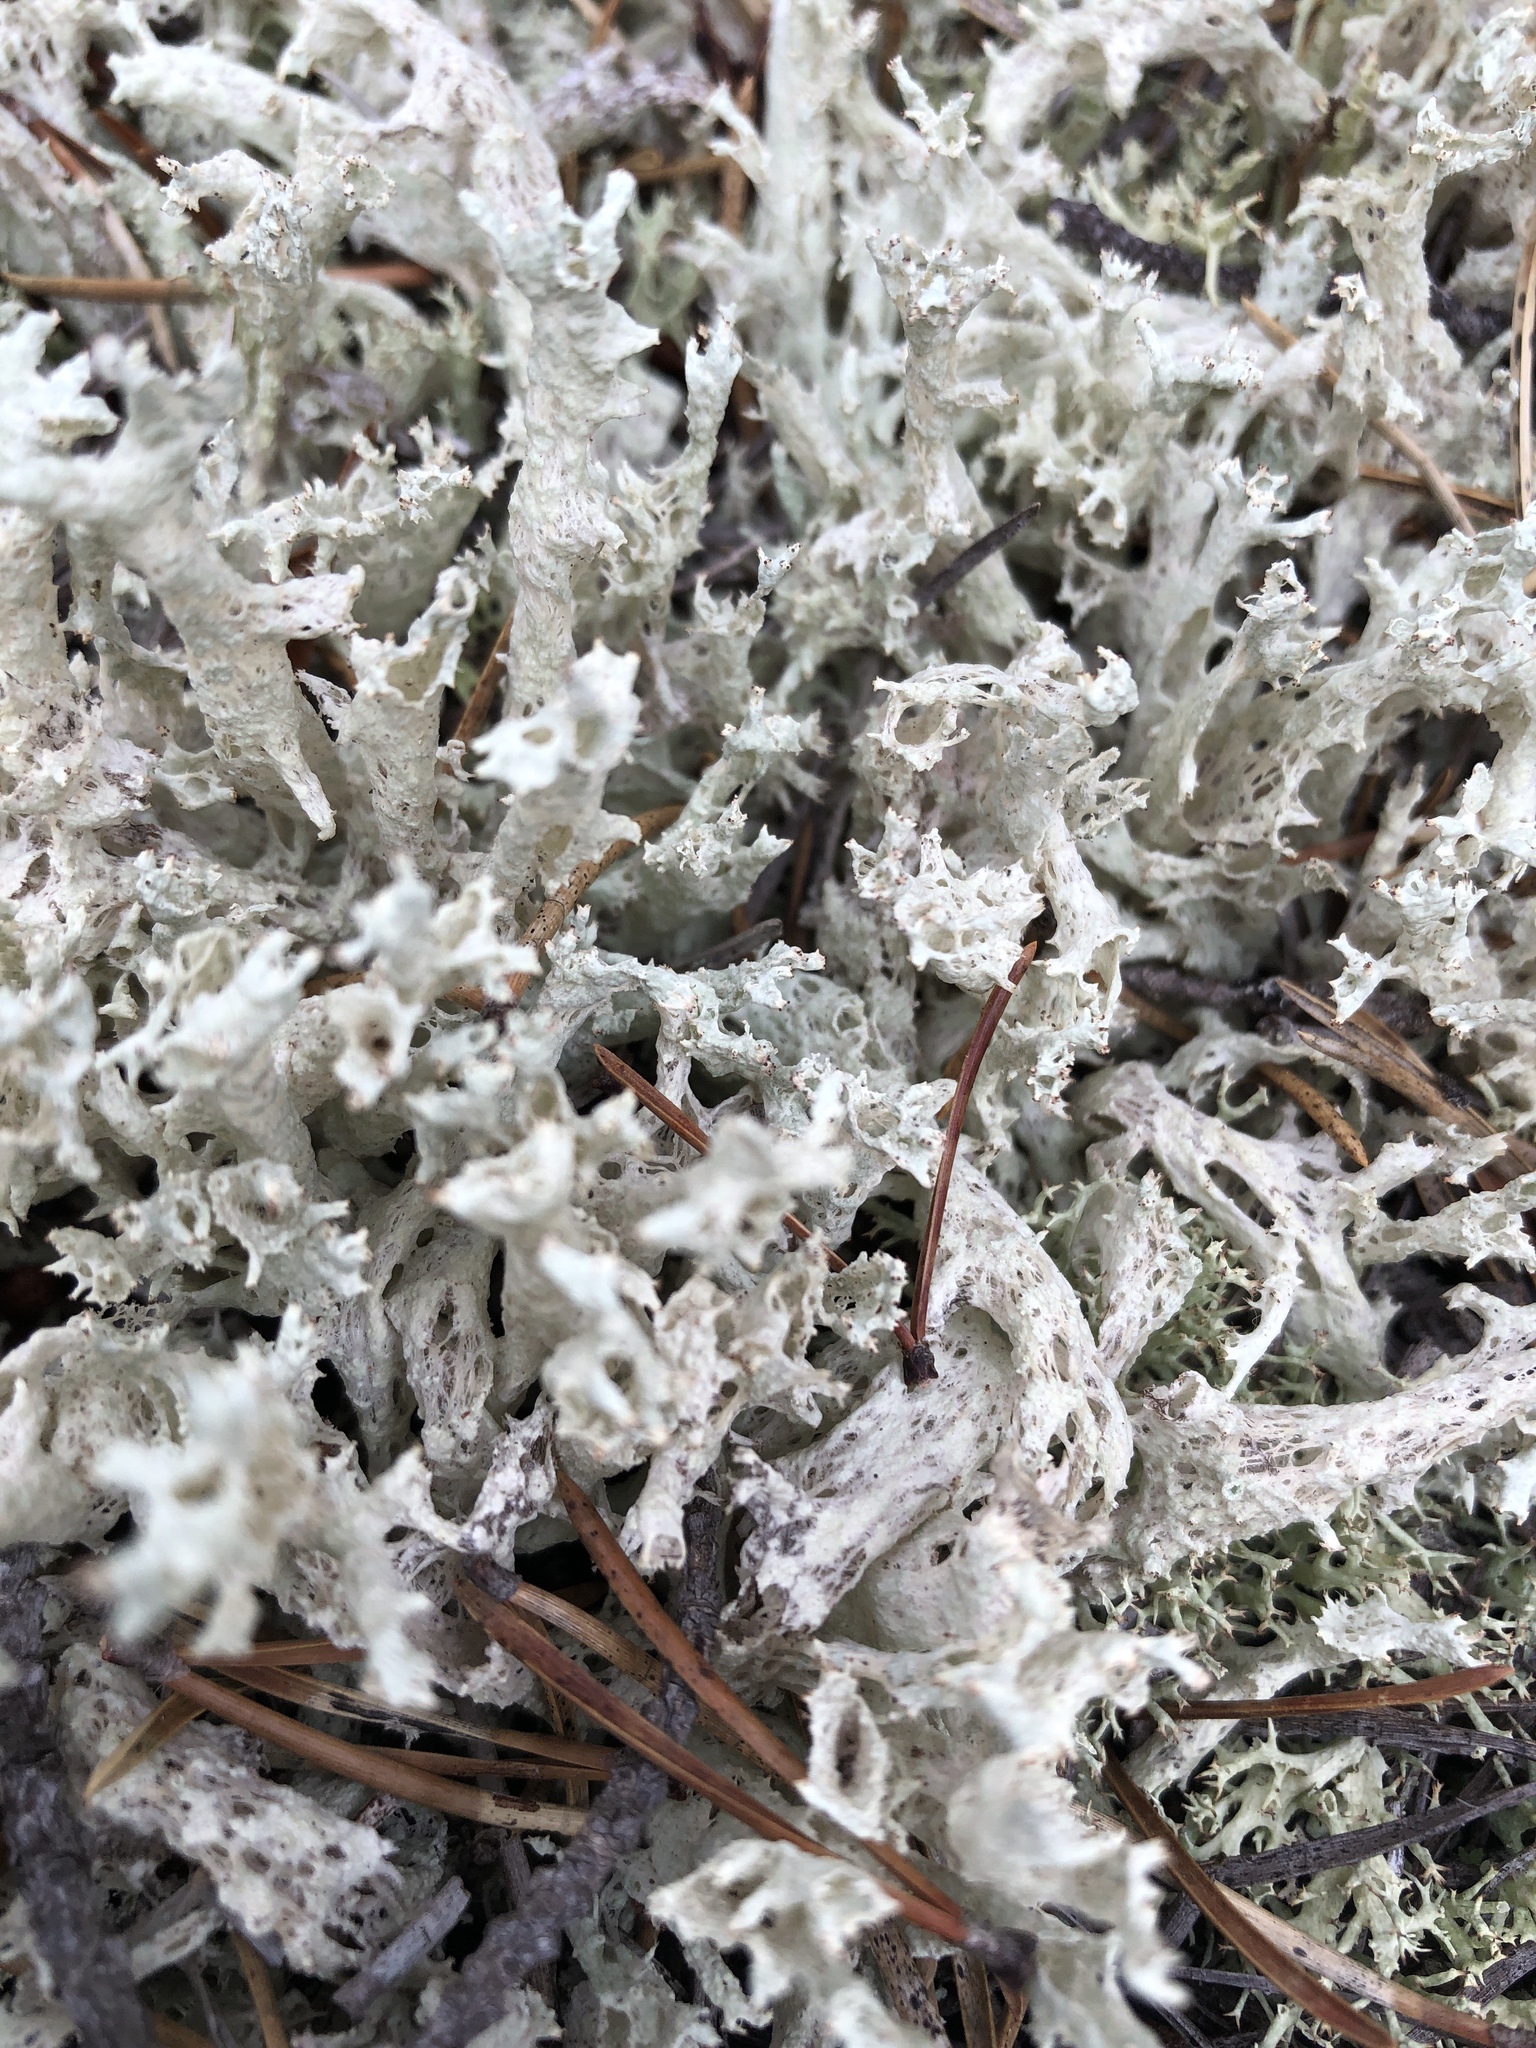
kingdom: Fungi
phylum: Ascomycota
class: Lecanoromycetes
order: Lecanorales
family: Cladoniaceae
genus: Cladonia
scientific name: Cladonia boryi
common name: Fishnet cladonia
